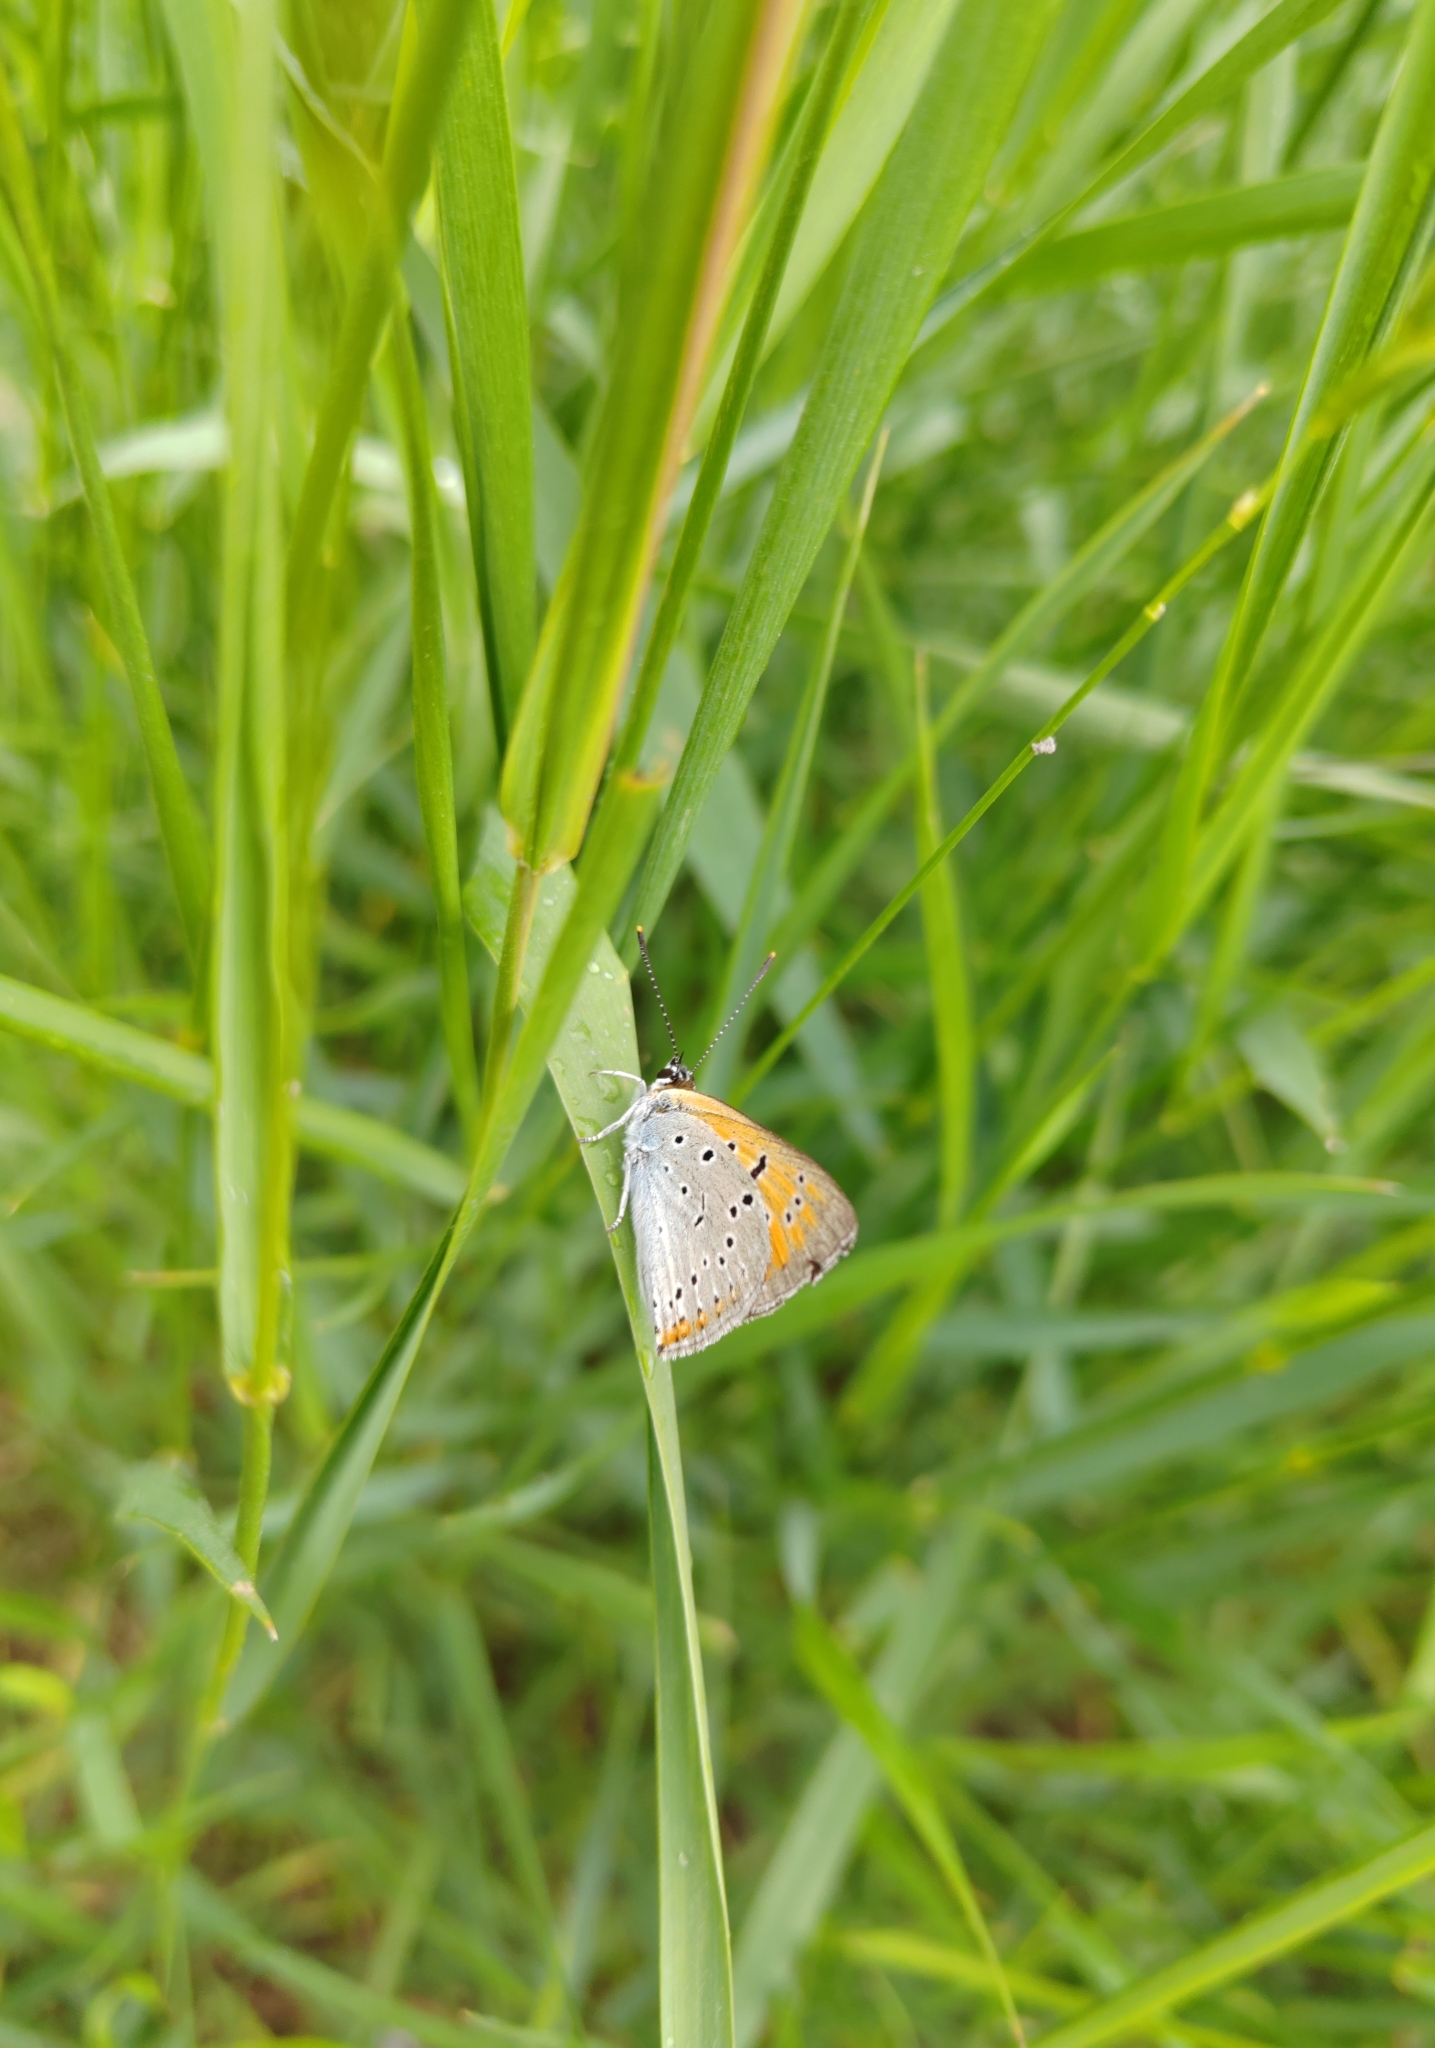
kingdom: Animalia
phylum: Arthropoda
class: Insecta
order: Lepidoptera
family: Lycaenidae
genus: Lycaena
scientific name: Lycaena dispar
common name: Large copper
